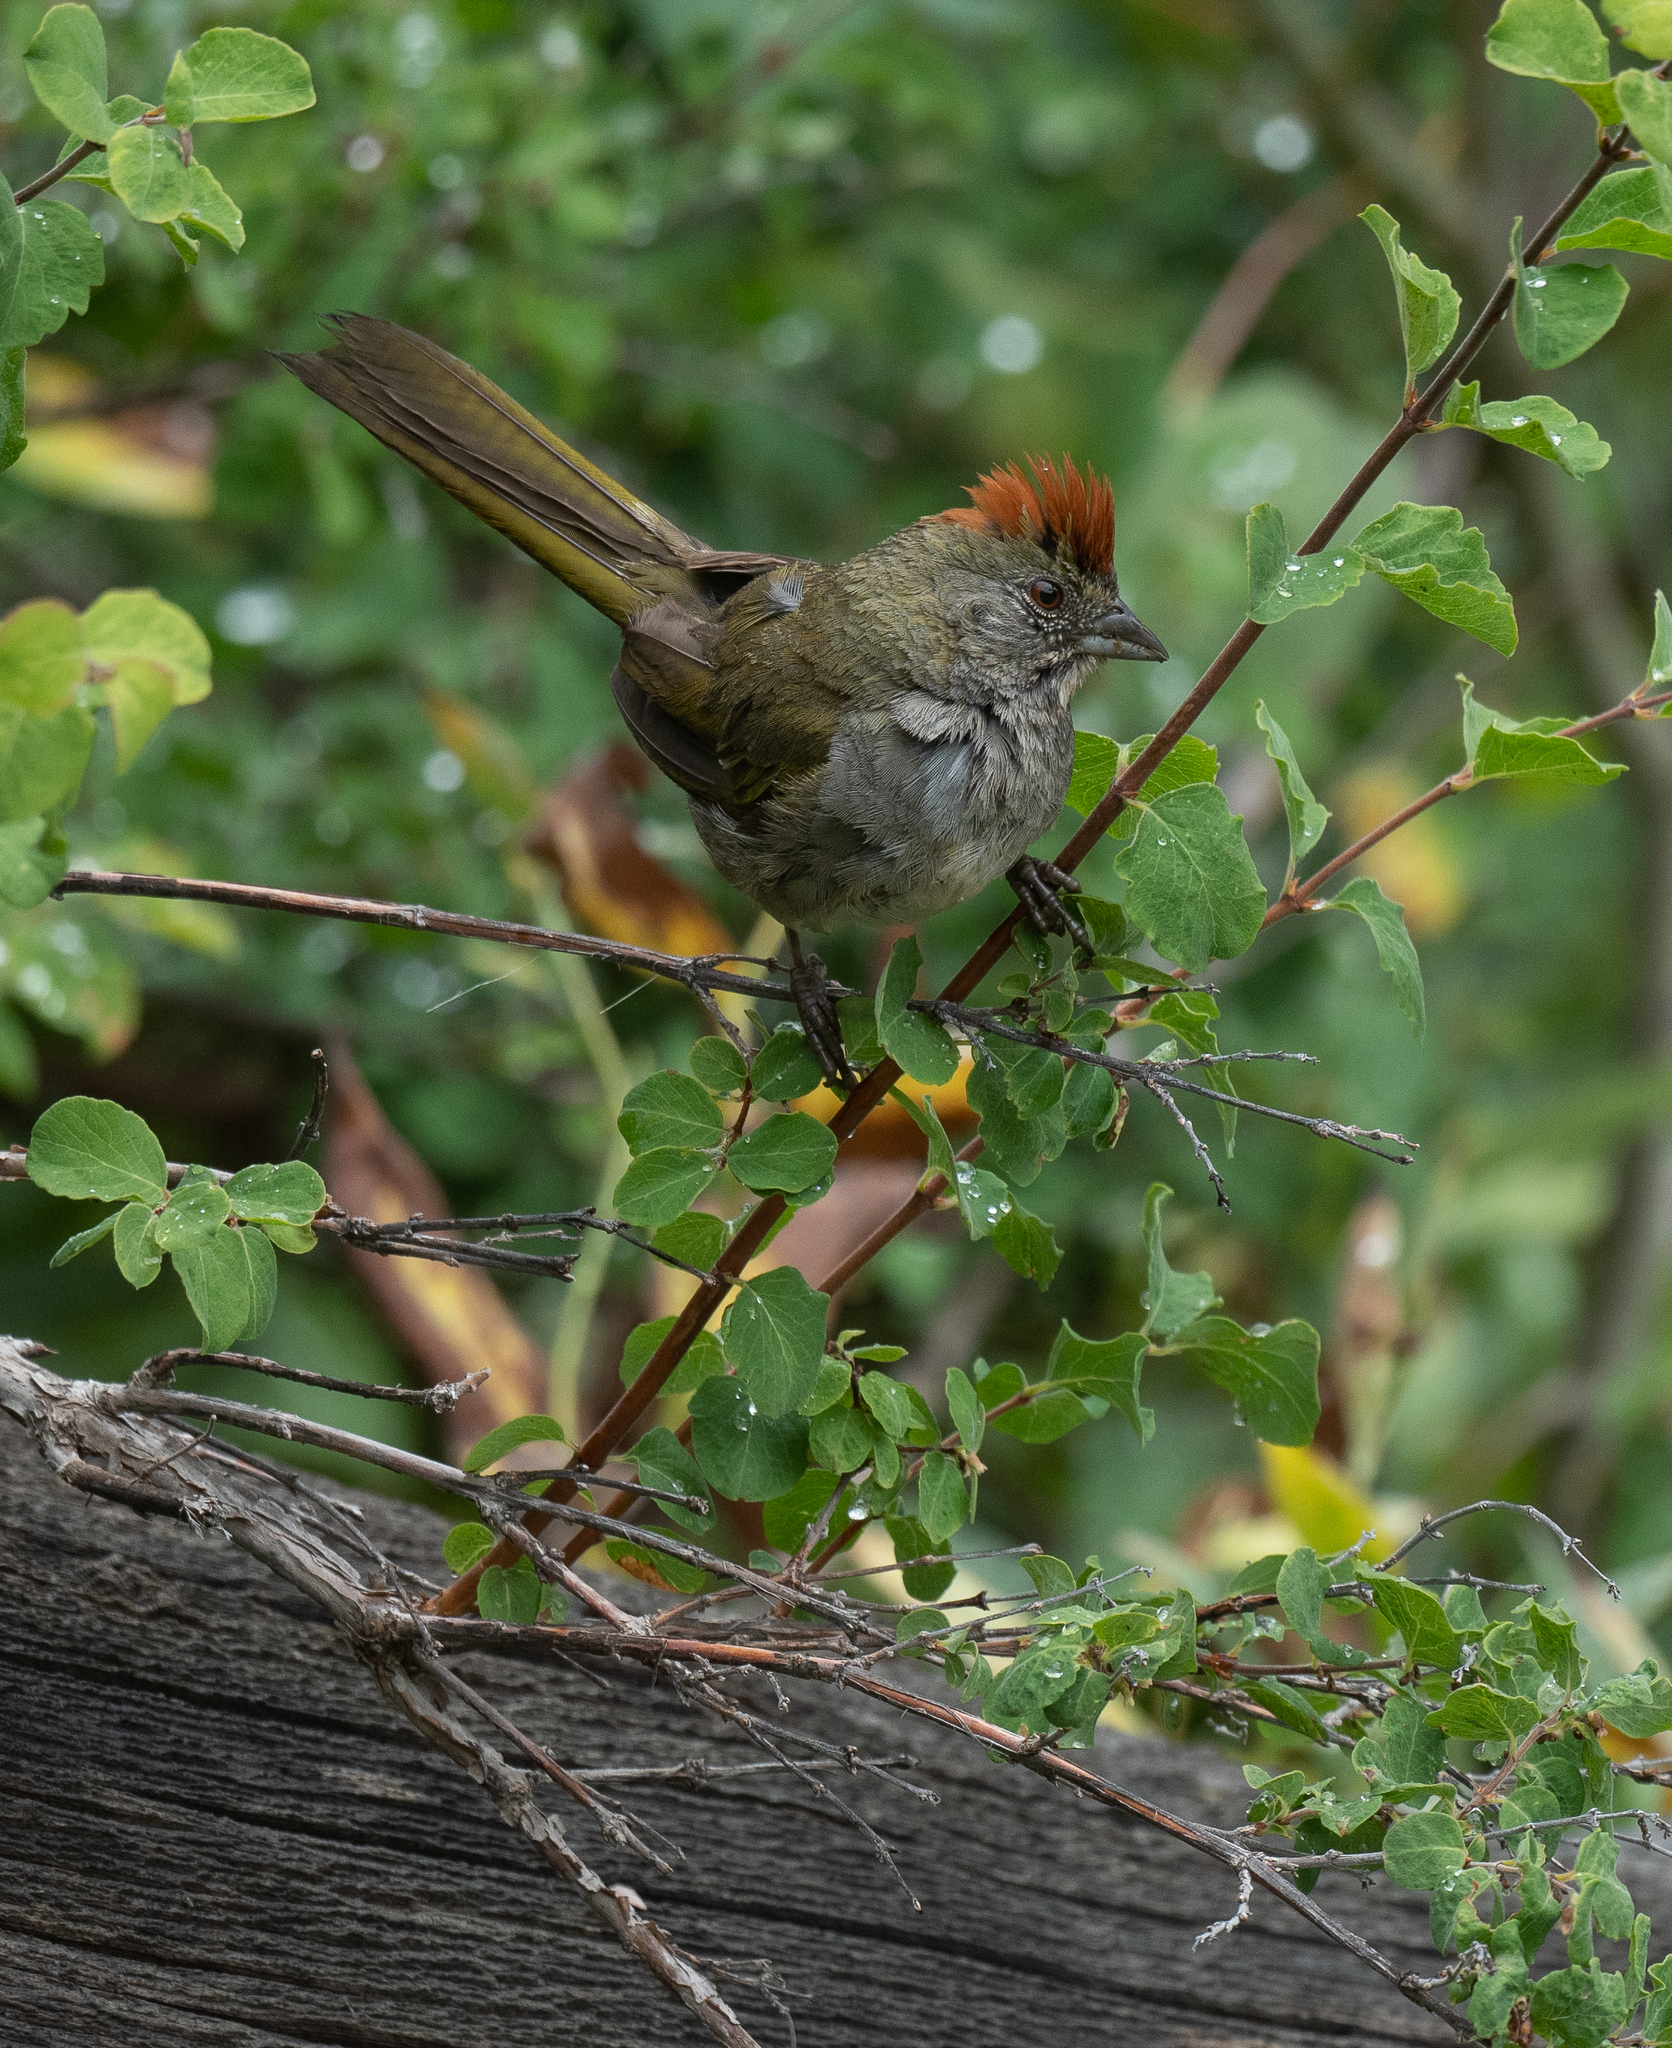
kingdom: Animalia
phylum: Chordata
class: Aves
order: Passeriformes
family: Passerellidae
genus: Pipilo
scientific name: Pipilo chlorurus
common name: Green-tailed towhee
